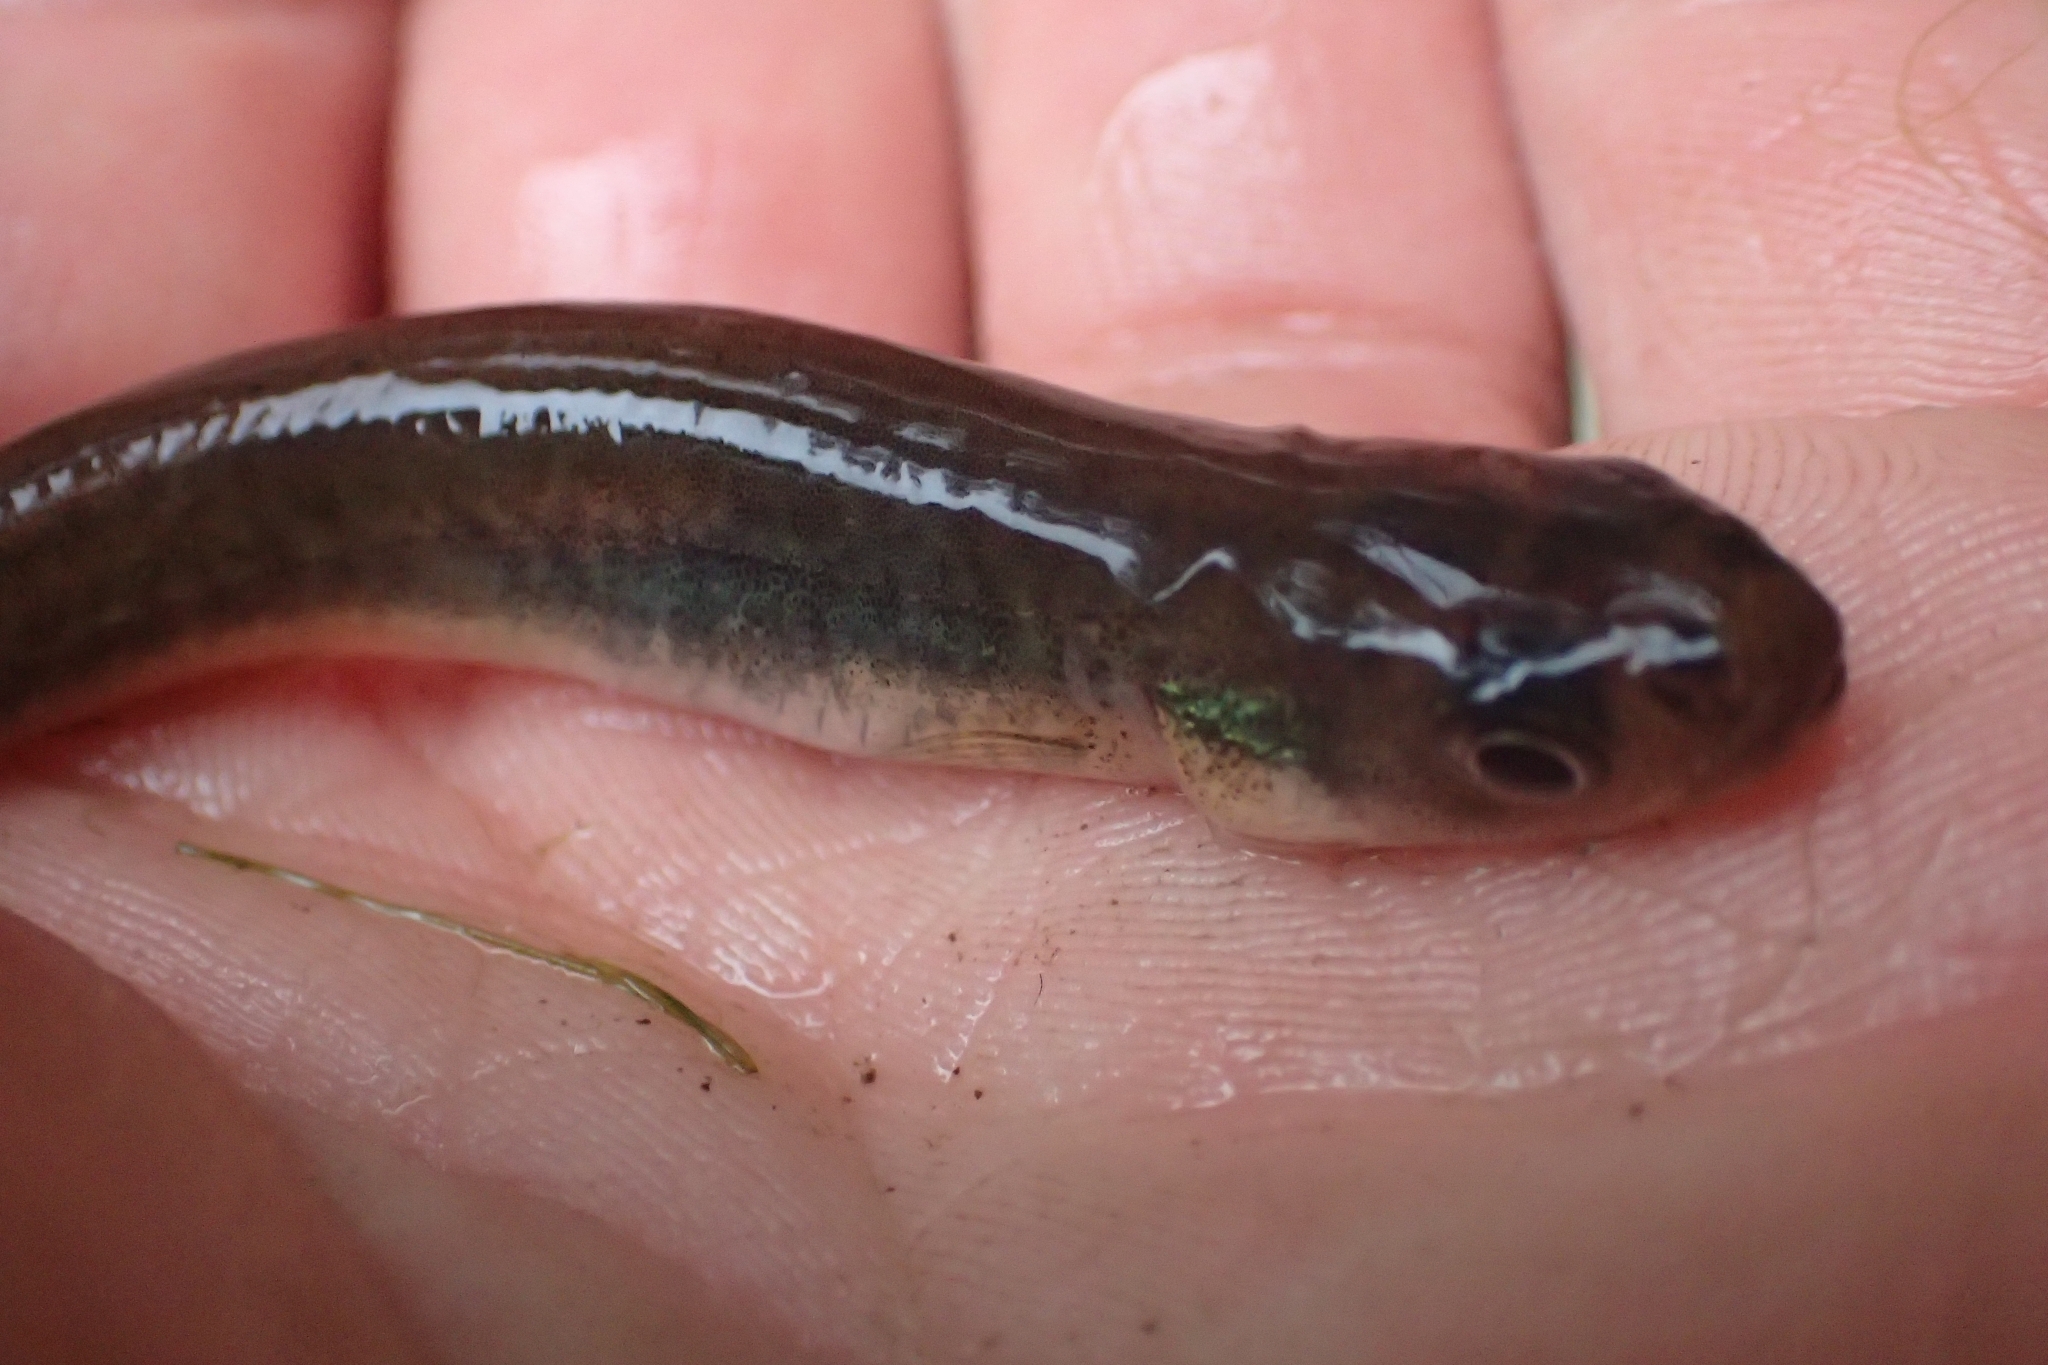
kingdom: Animalia
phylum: Chordata
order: Osmeriformes
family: Galaxiidae
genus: Galaxias
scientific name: Galaxias maculatus
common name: Common galaxias
